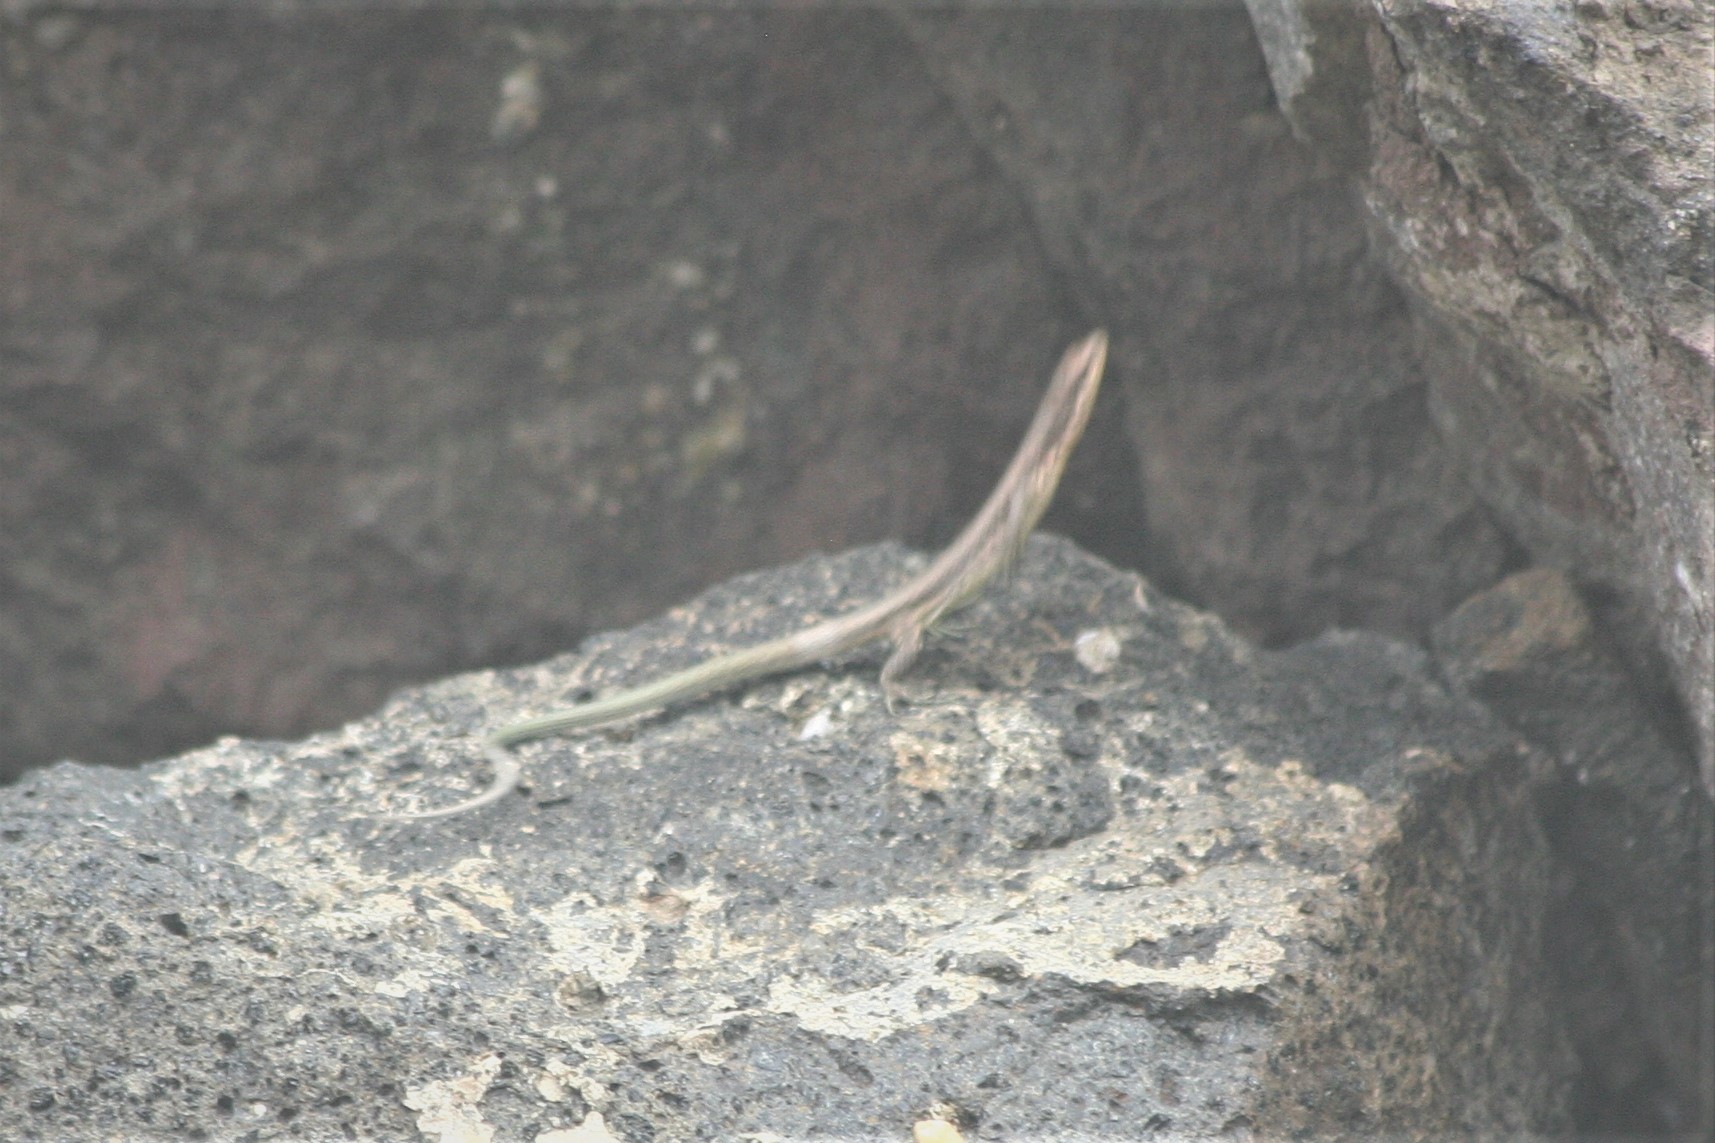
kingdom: Animalia
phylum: Chordata
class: Squamata
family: Lacertidae
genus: Darevskia
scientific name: Darevskia rudis
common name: Spiny-tailed lizard
